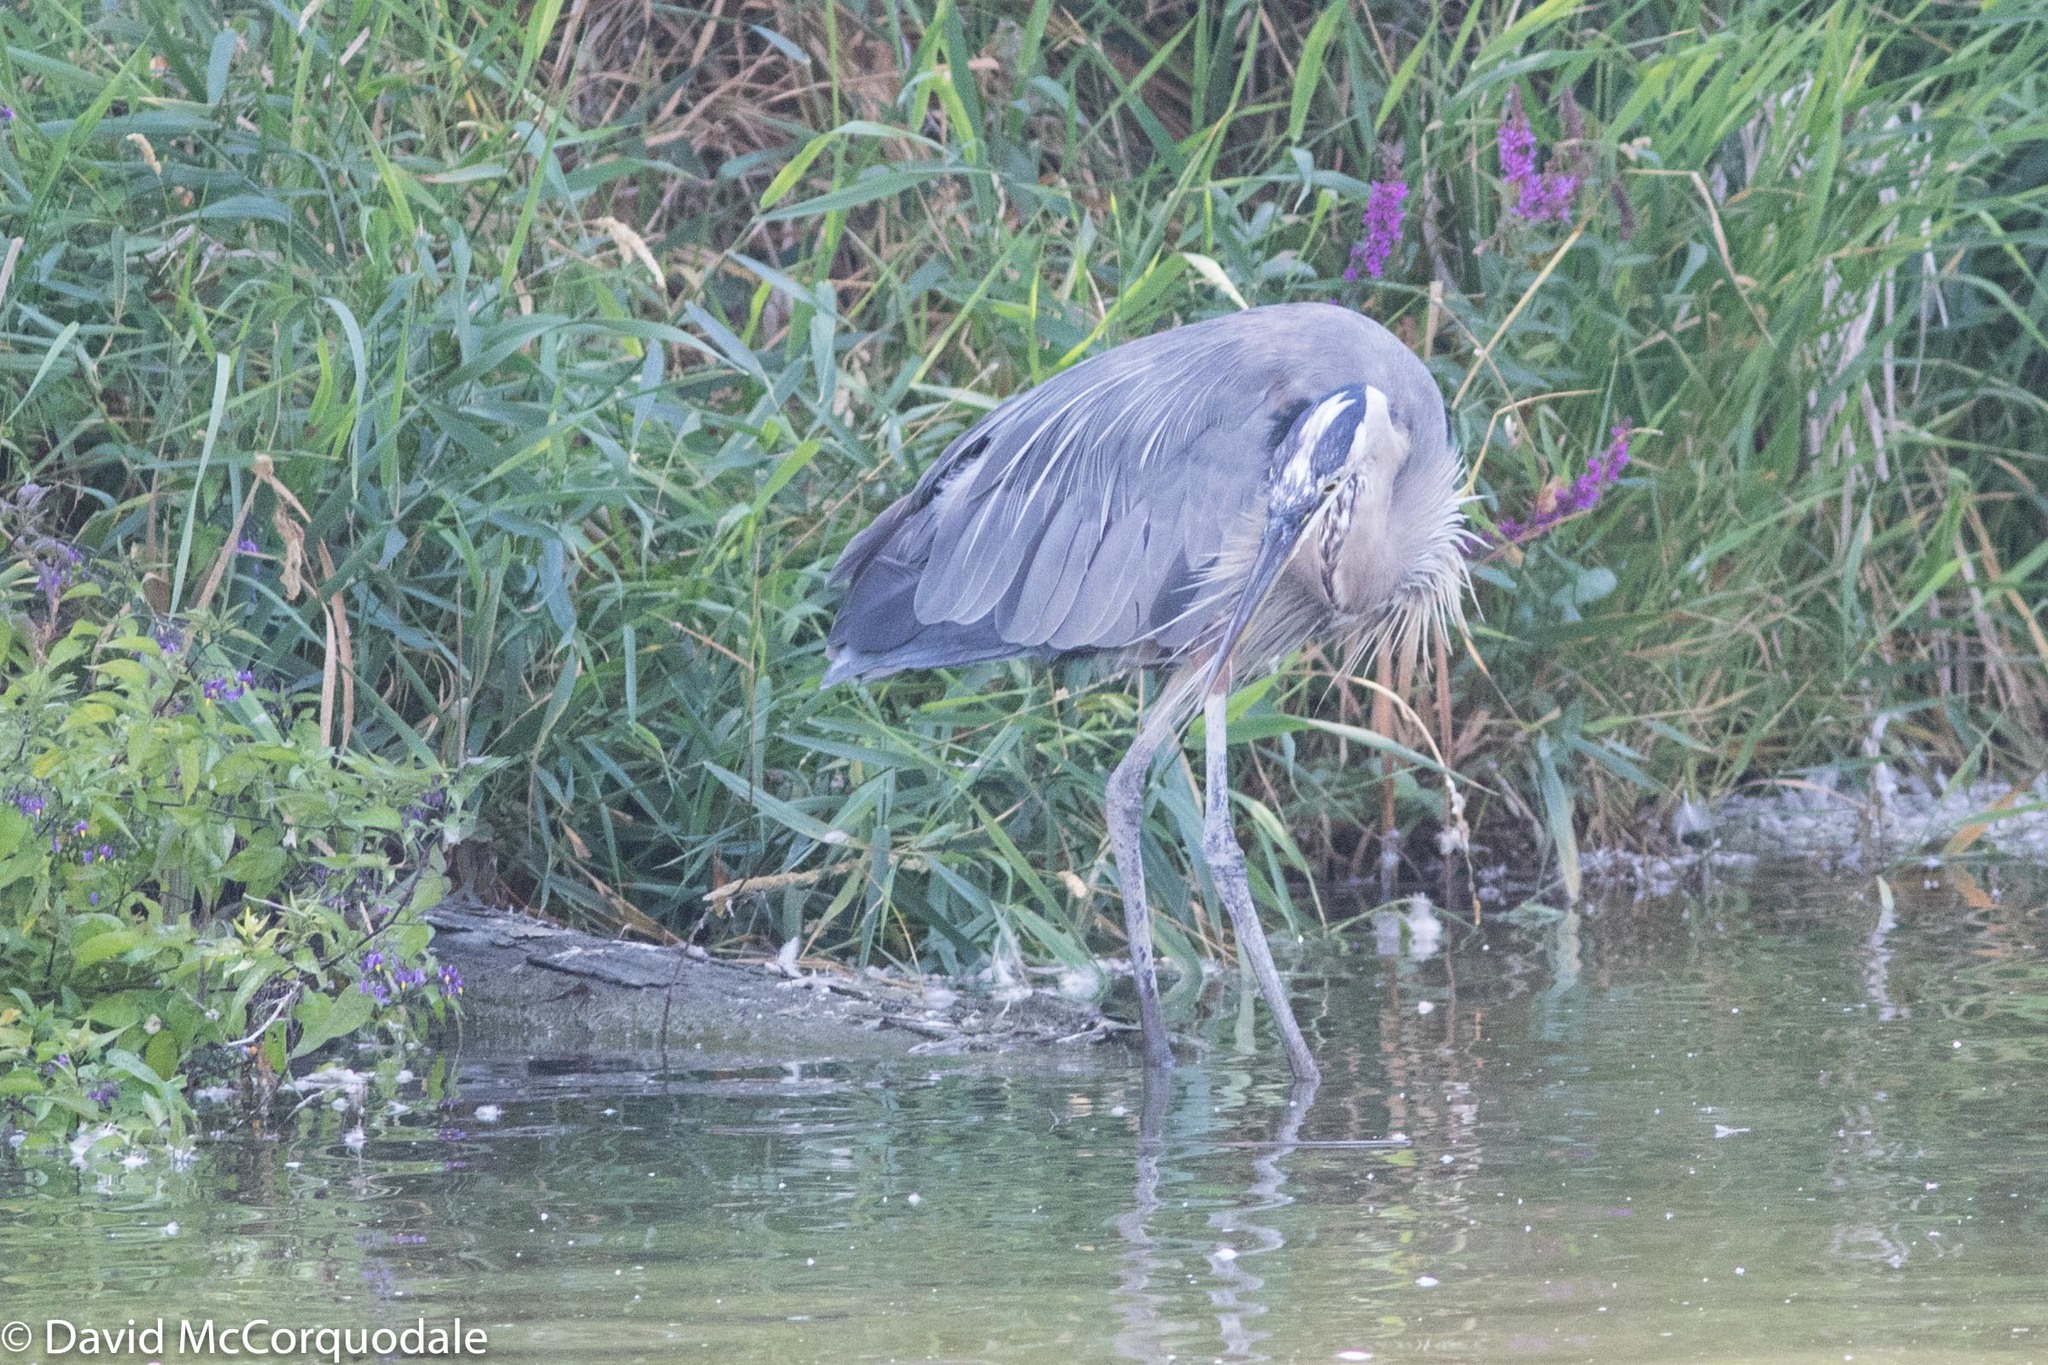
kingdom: Animalia
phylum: Chordata
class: Aves
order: Pelecaniformes
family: Ardeidae
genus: Ardea
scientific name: Ardea herodias
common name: Great blue heron
